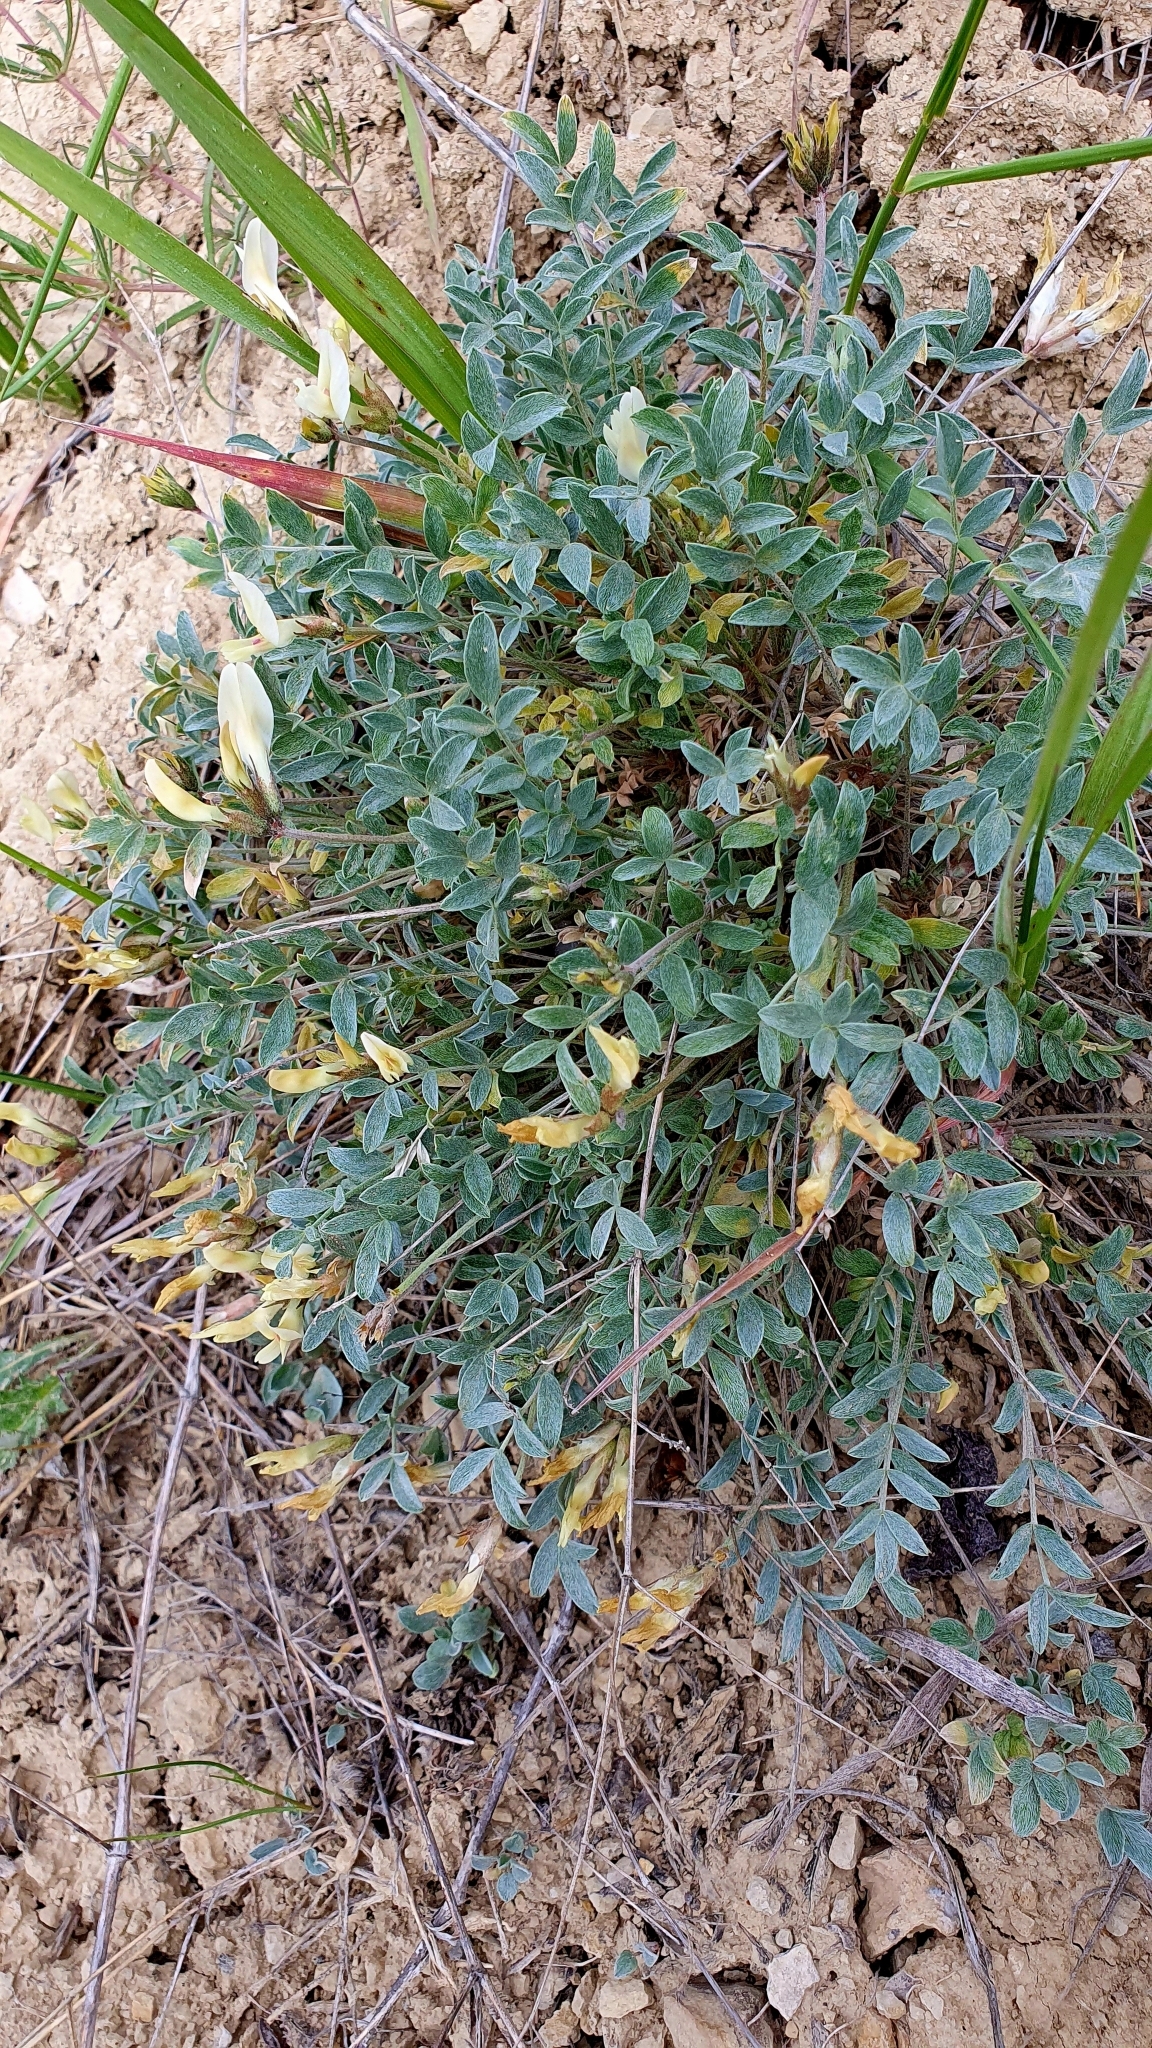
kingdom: Plantae
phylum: Tracheophyta
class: Magnoliopsida
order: Fabales
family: Fabaceae
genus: Astragalus
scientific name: Astragalus helmii
